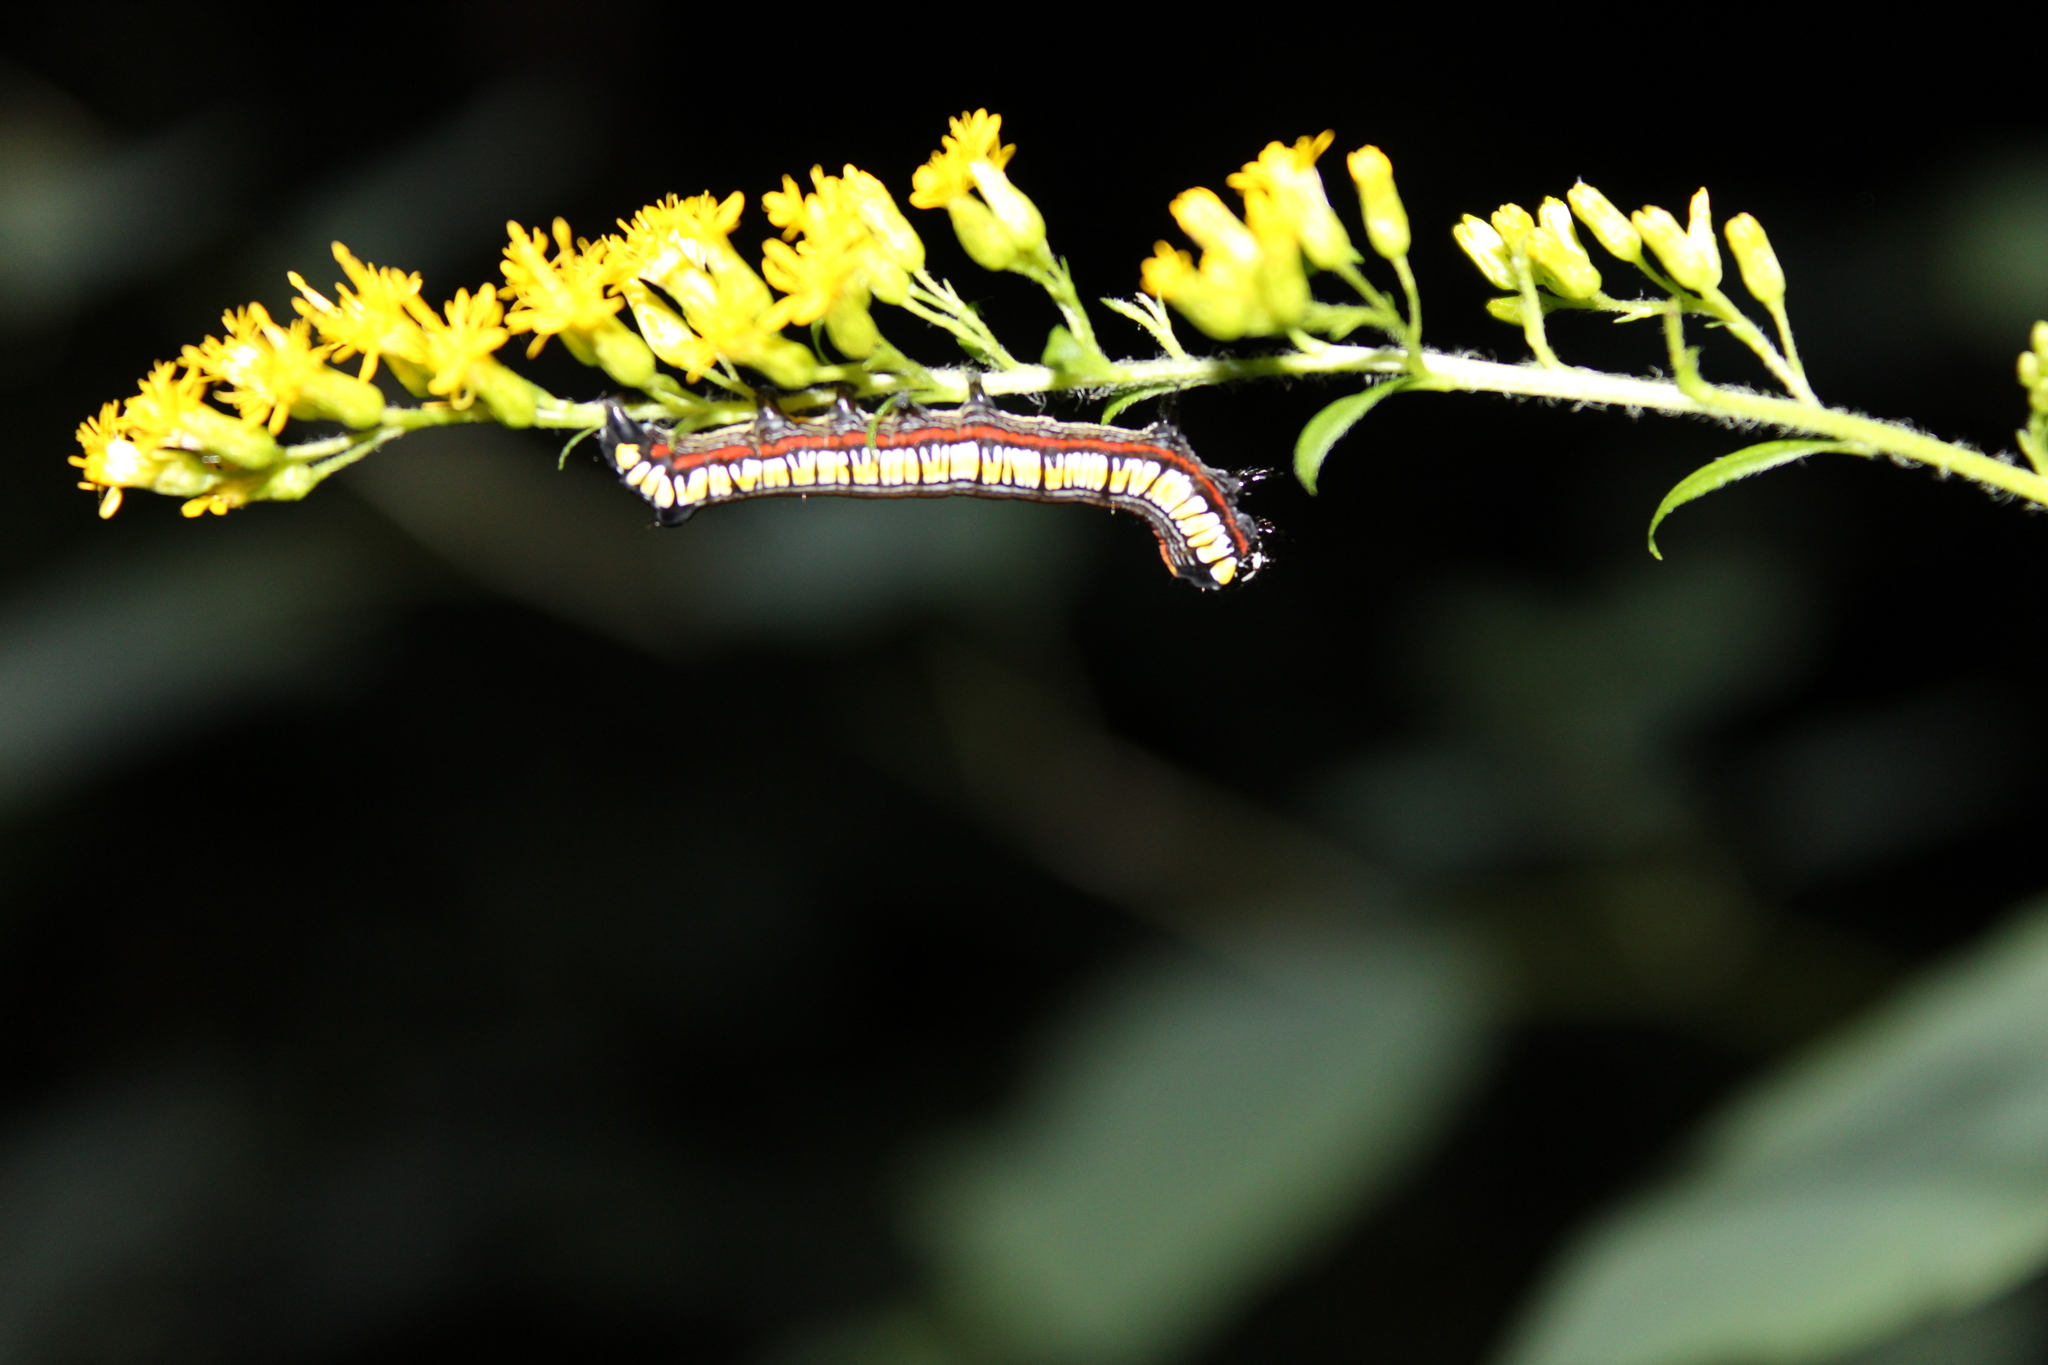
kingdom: Animalia
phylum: Arthropoda
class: Insecta
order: Lepidoptera
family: Noctuidae
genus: Cucullia
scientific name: Cucullia convexipennis
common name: Brown-hooded owlet
